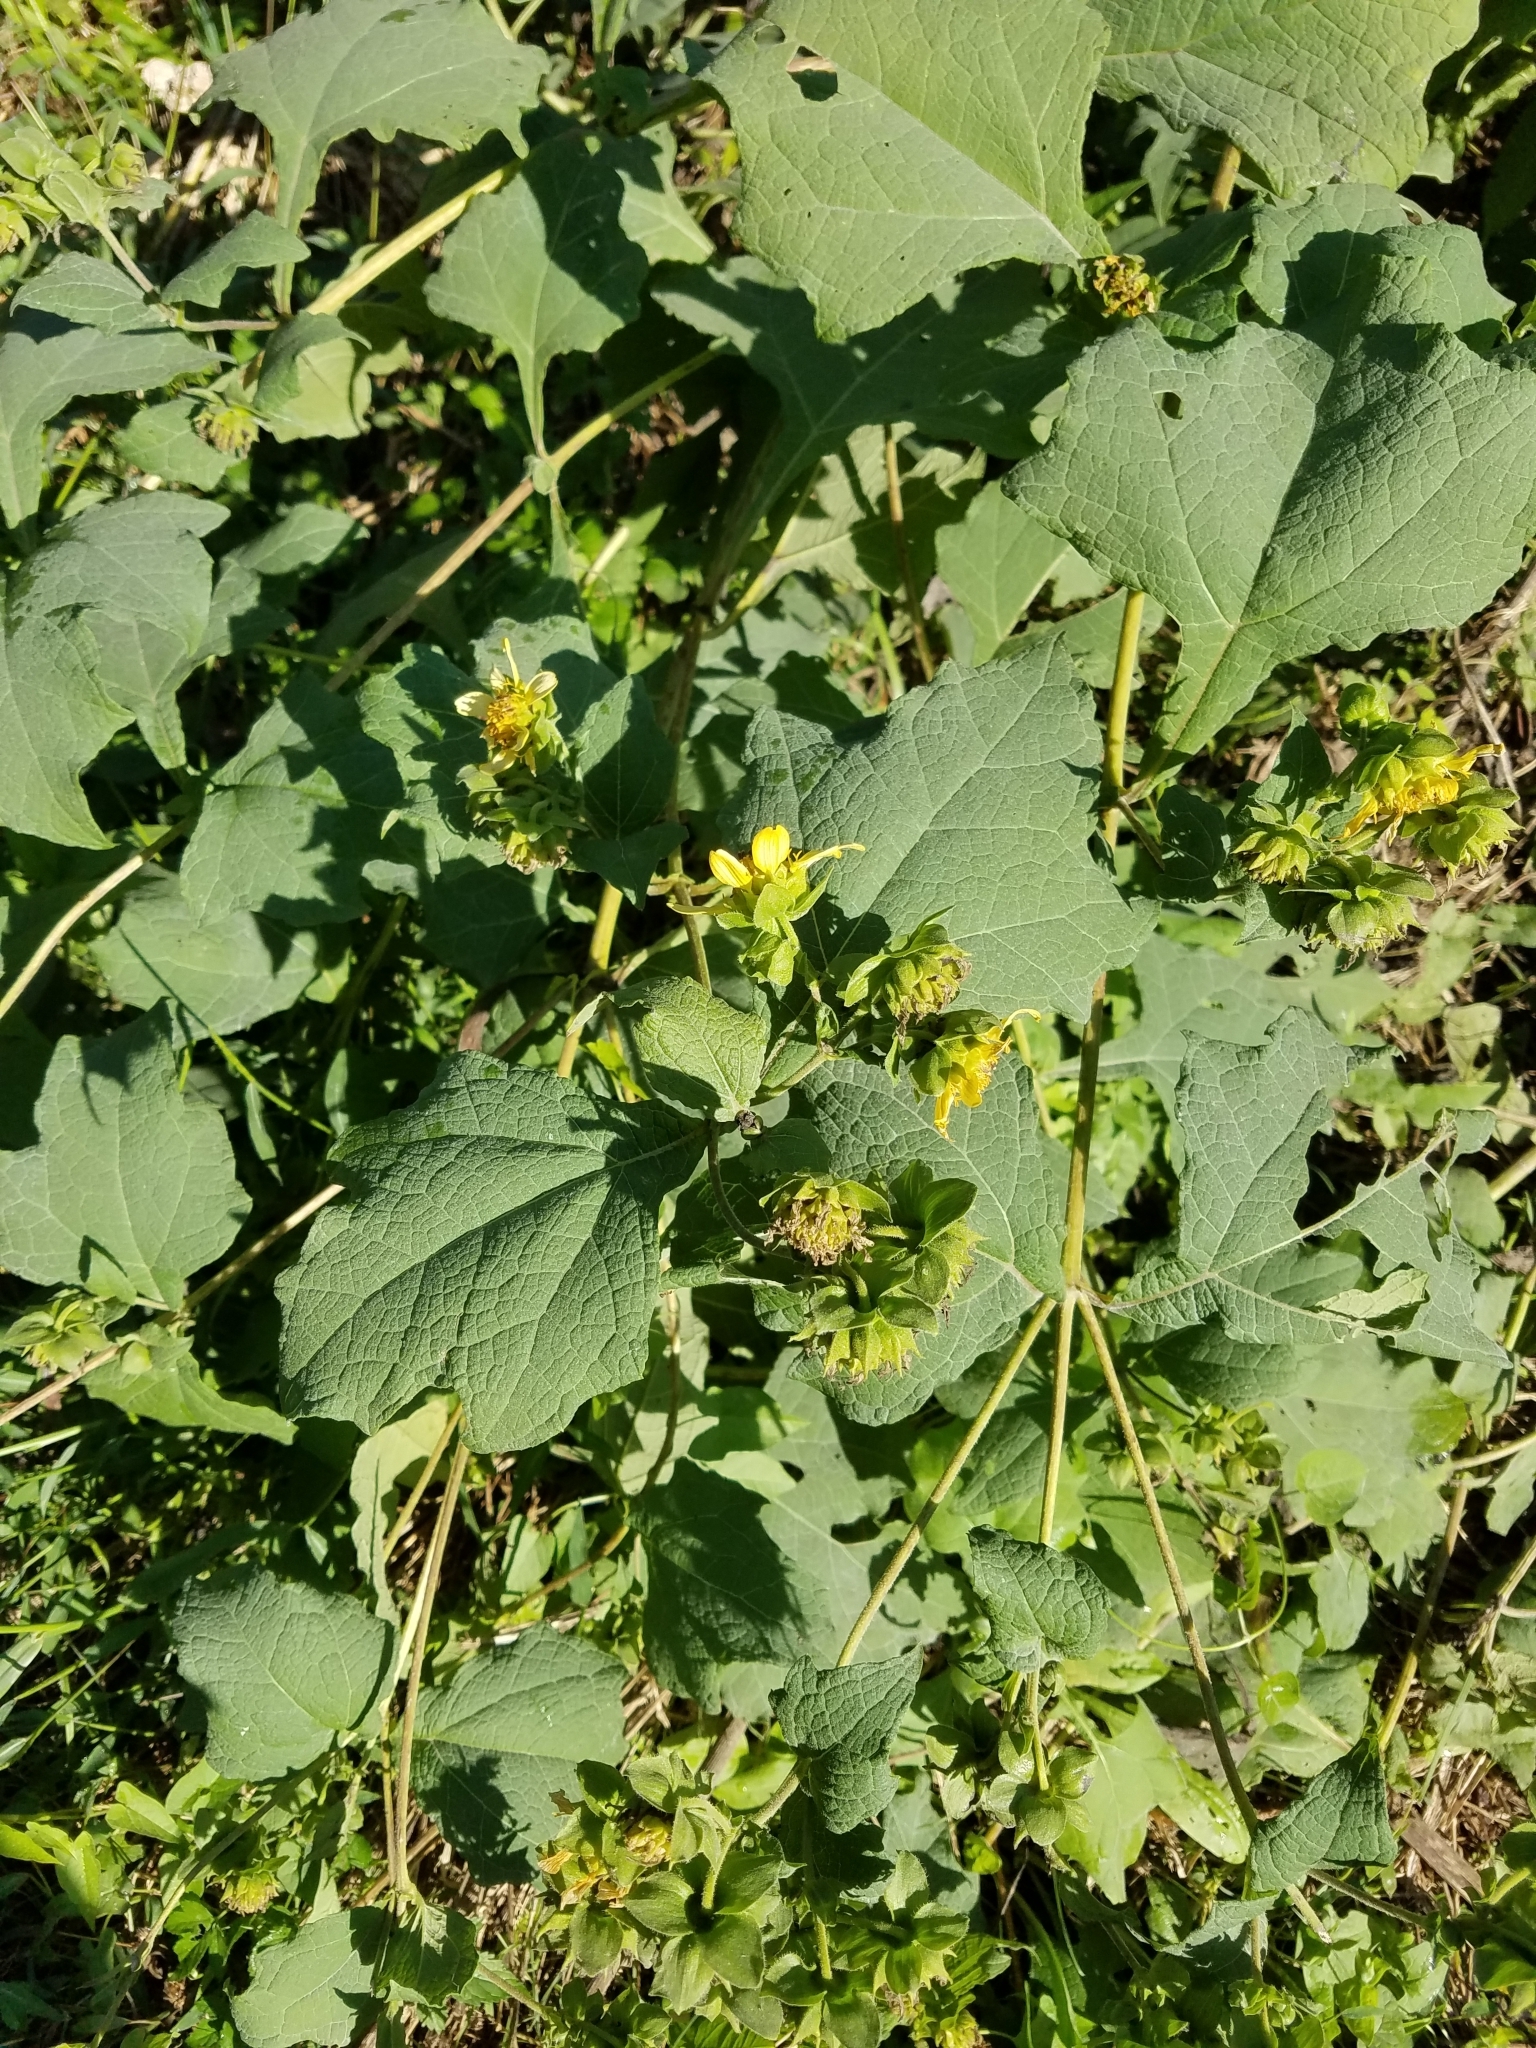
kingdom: Plantae
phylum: Tracheophyta
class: Magnoliopsida
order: Asterales
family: Asteraceae
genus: Smallanthus
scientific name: Smallanthus uvedalia
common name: Bear's-foot
